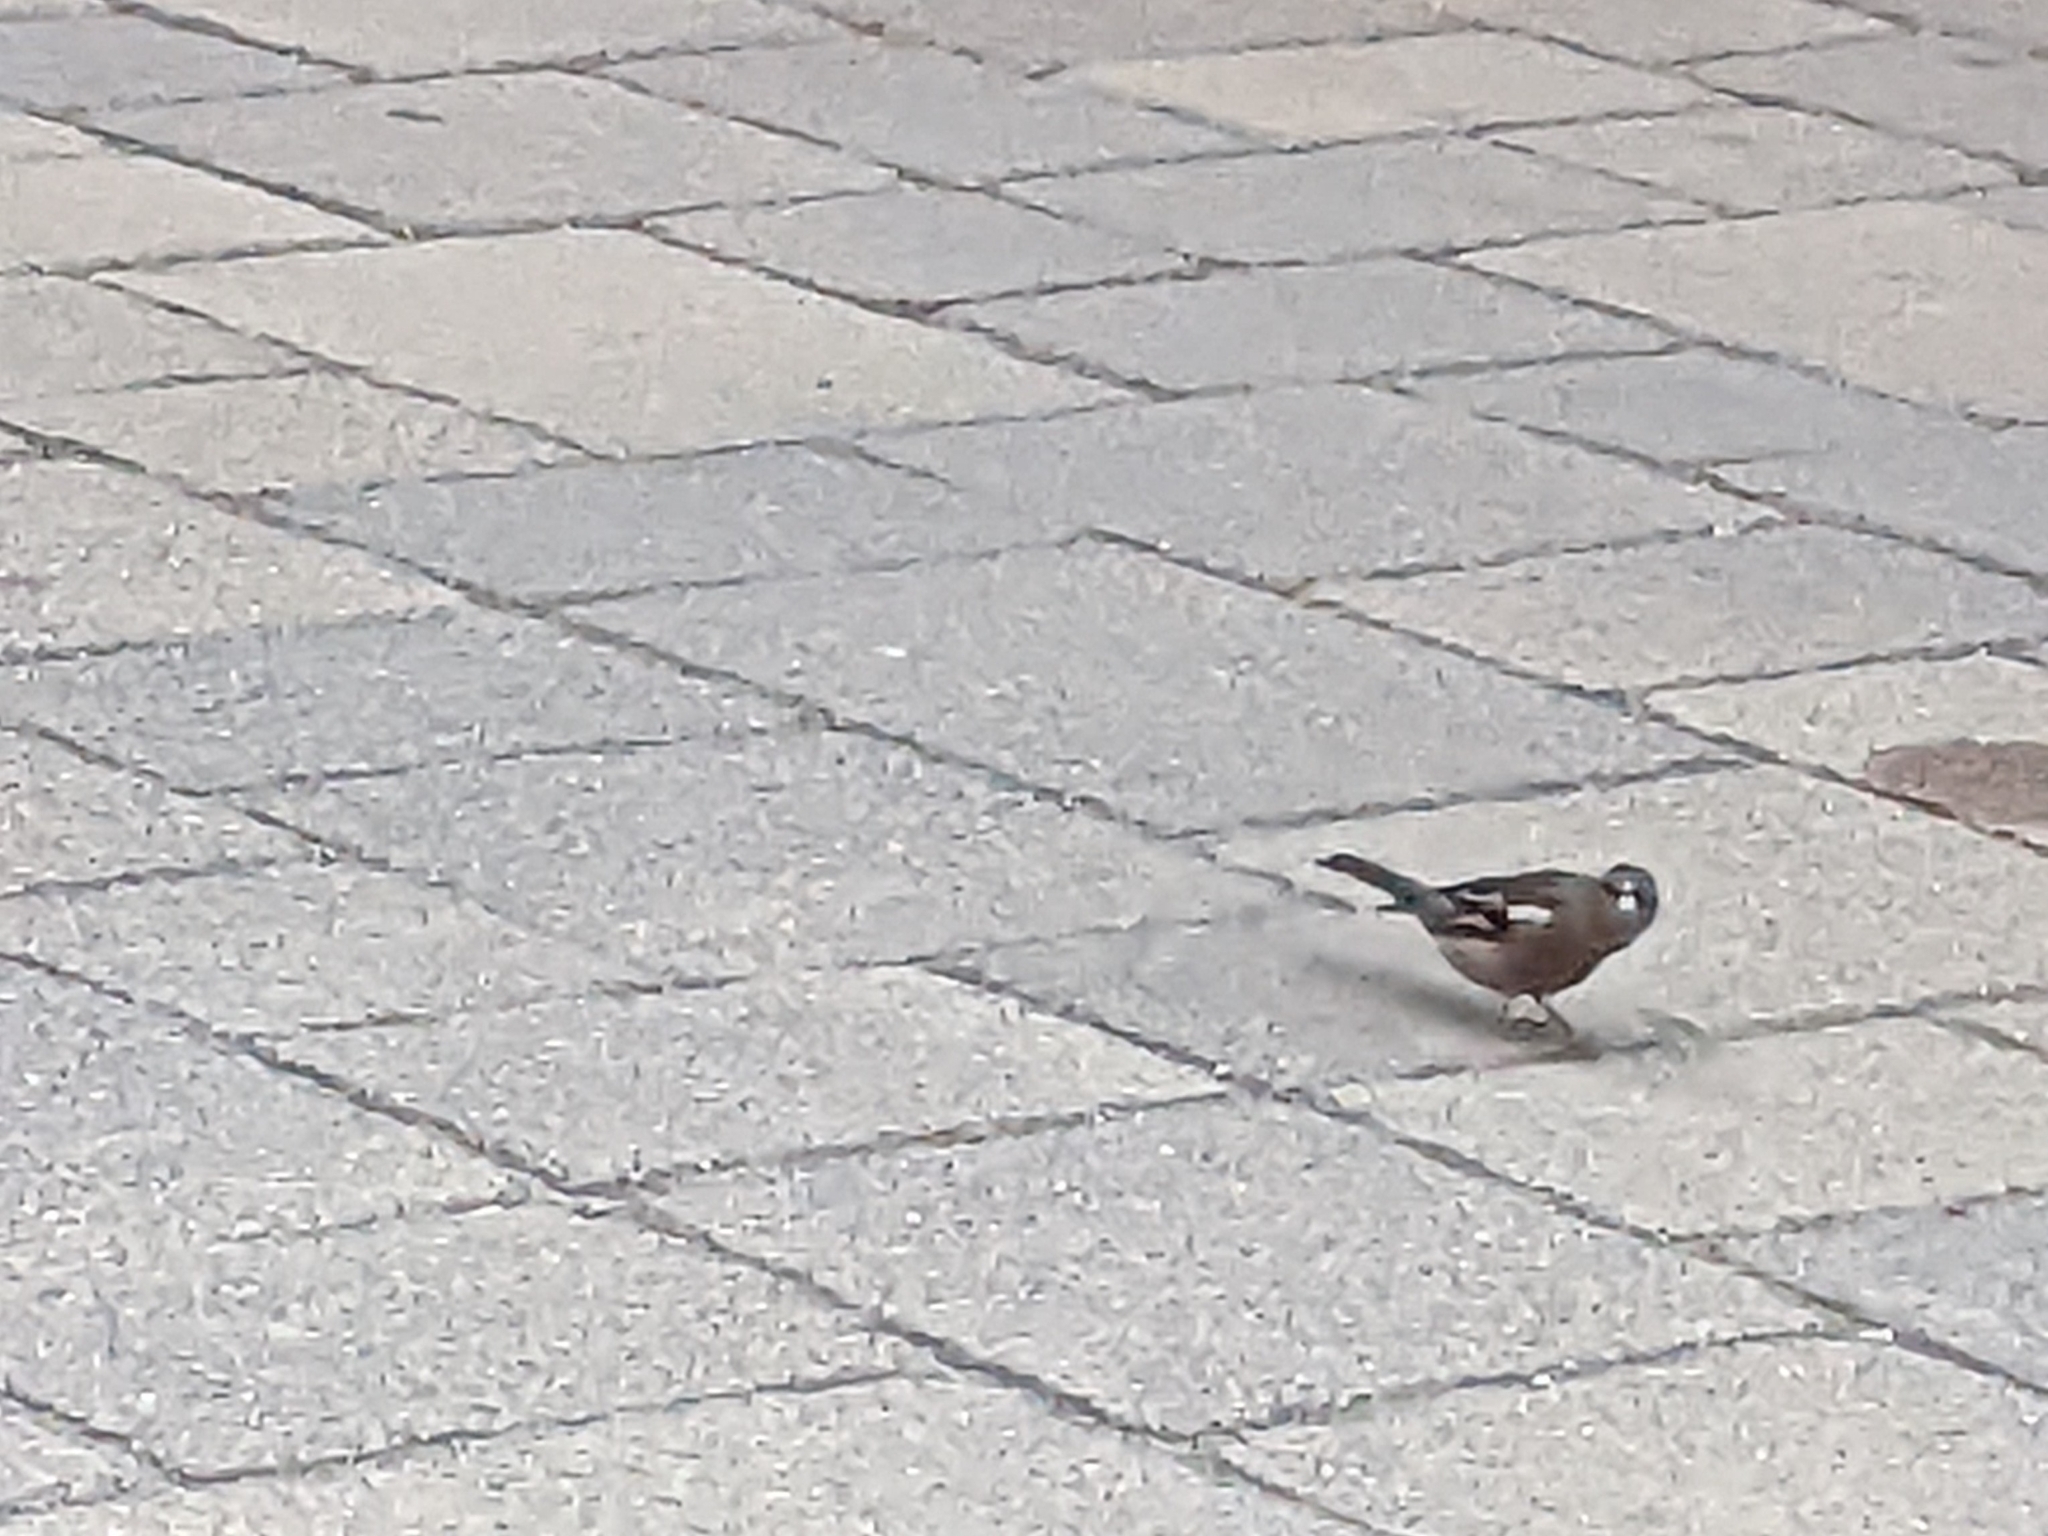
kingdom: Animalia
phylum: Chordata
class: Aves
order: Passeriformes
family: Fringillidae
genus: Fringilla
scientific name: Fringilla coelebs
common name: Common chaffinch
